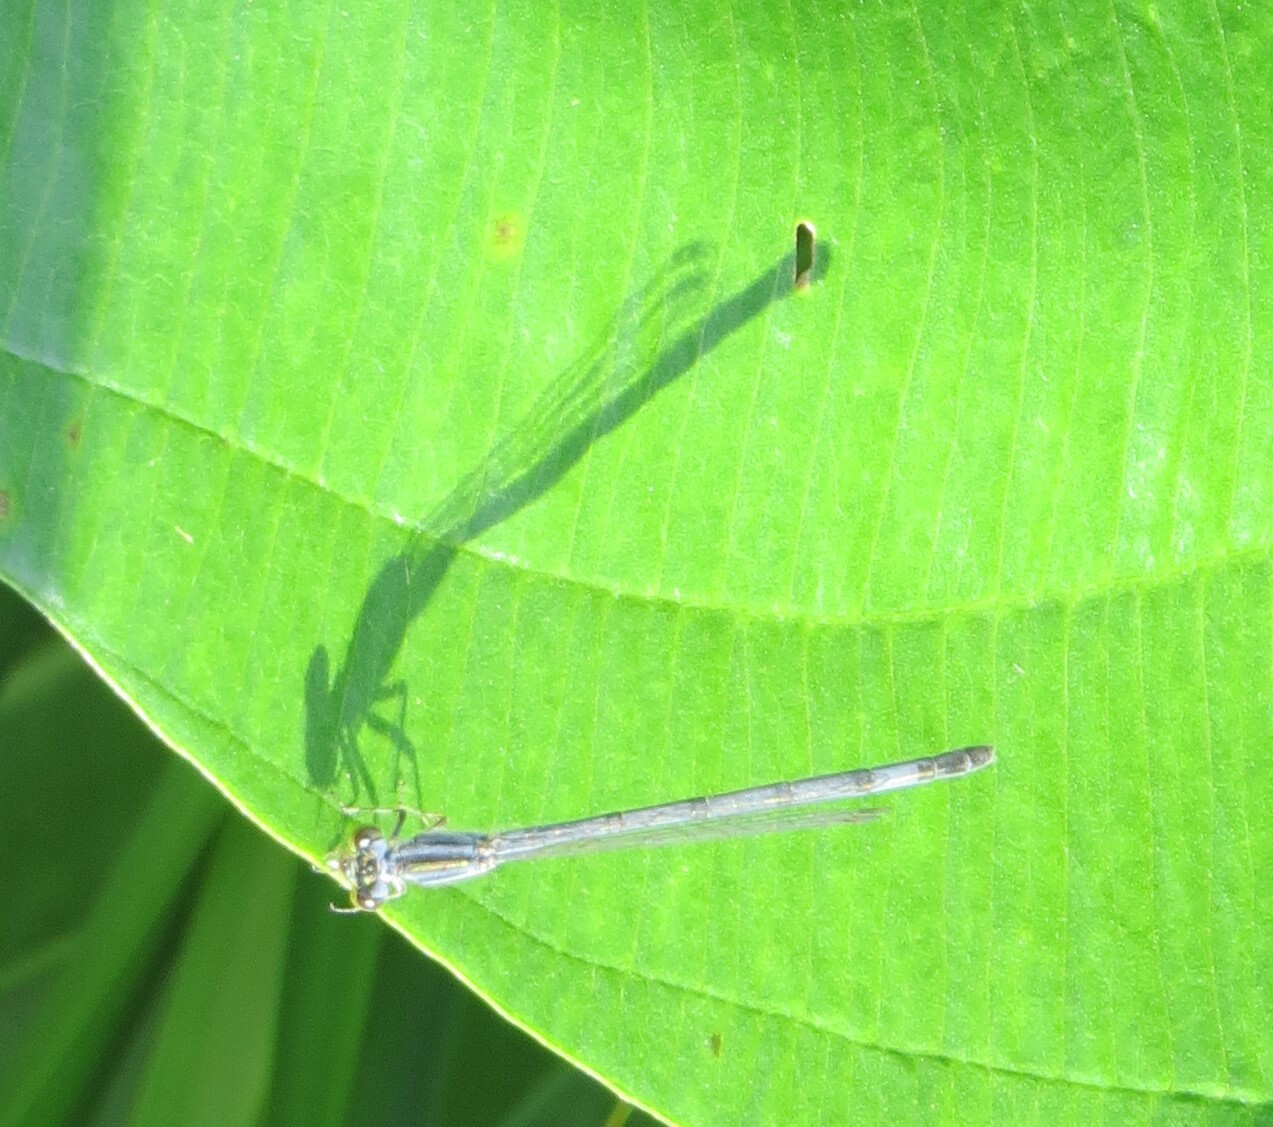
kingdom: Animalia
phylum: Arthropoda
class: Insecta
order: Odonata
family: Coenagrionidae
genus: Ischnura
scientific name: Ischnura verticalis
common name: Eastern forktail
